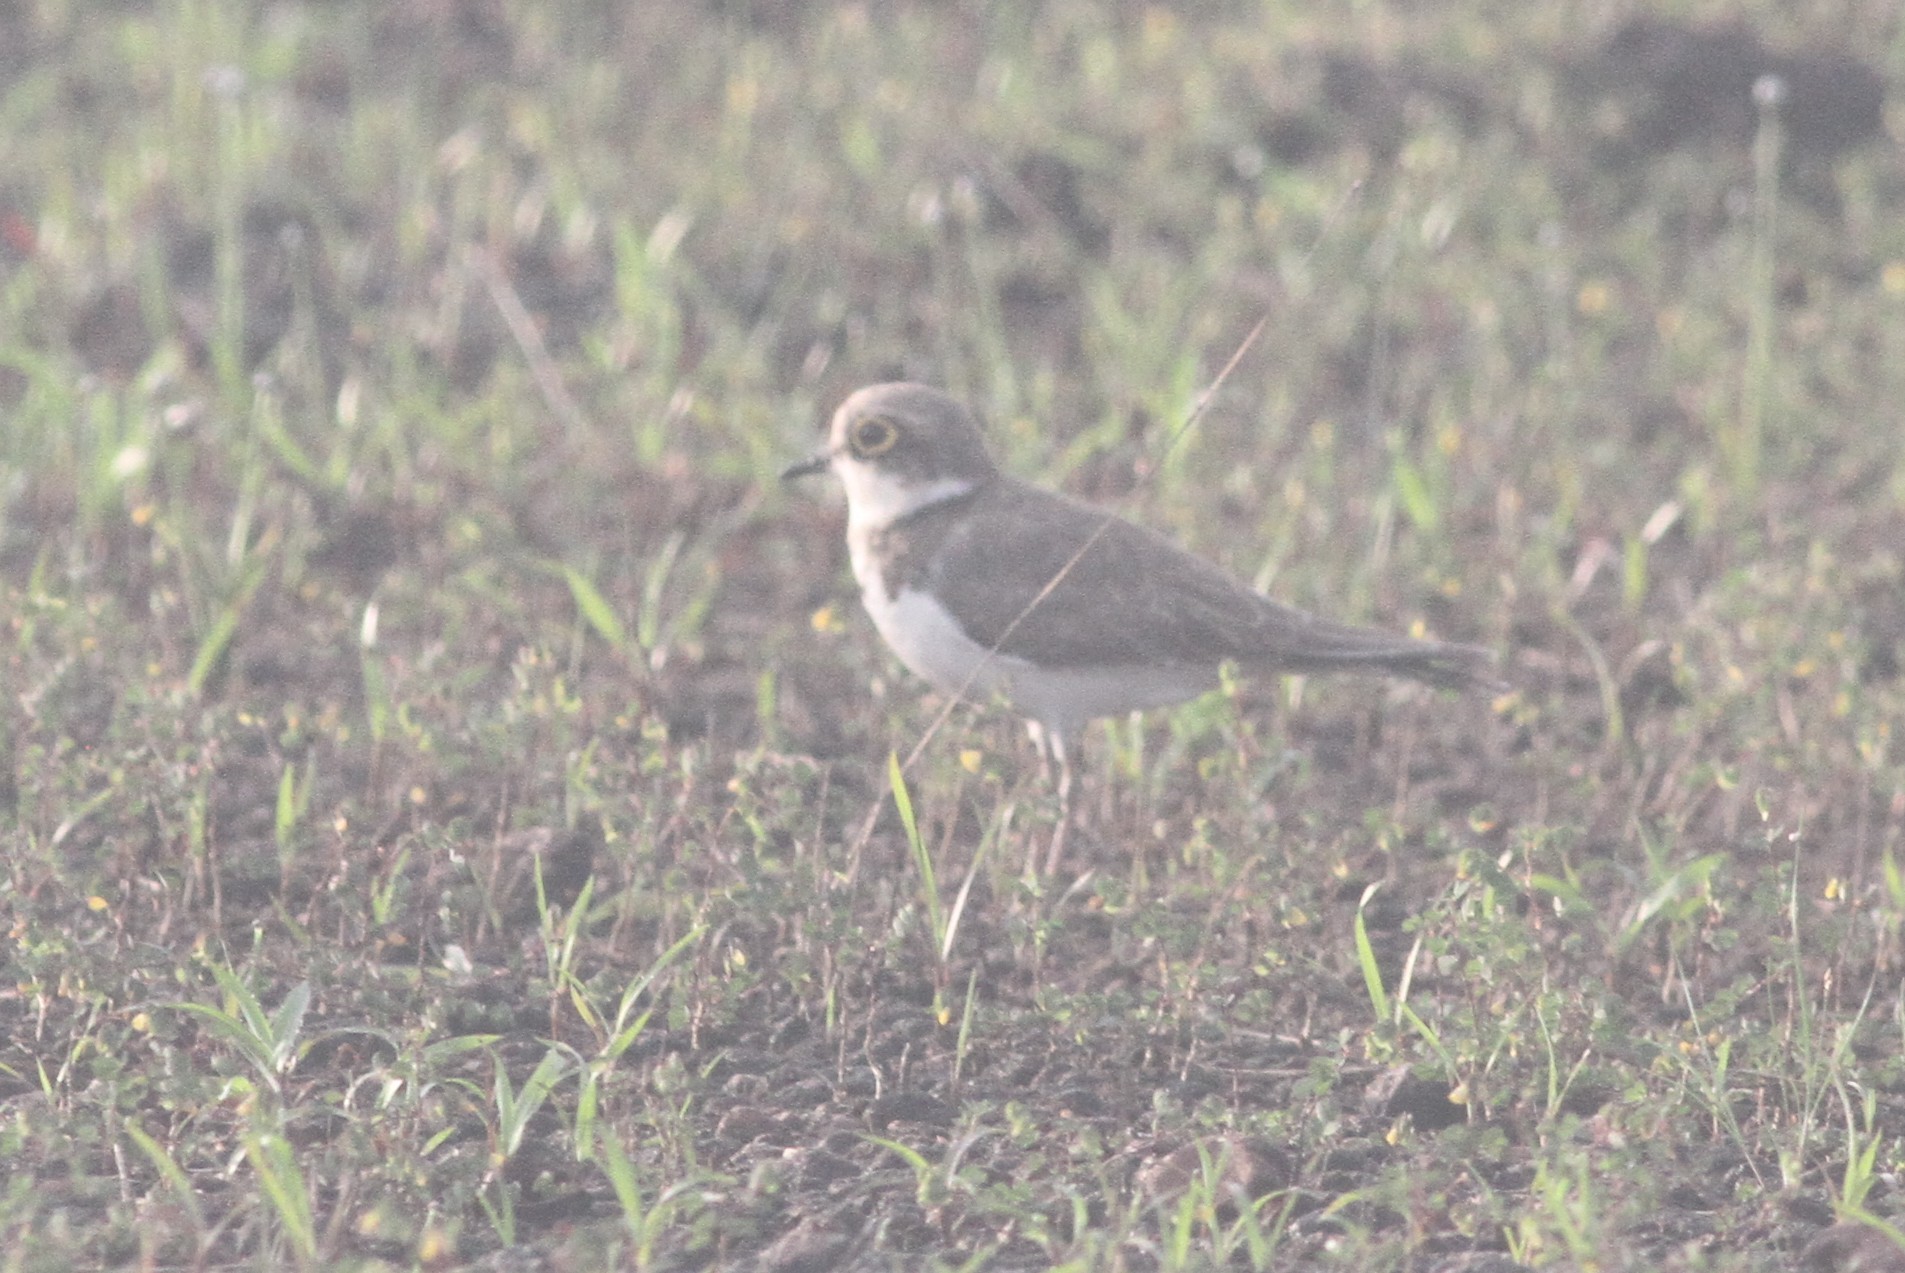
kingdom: Animalia
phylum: Chordata
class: Aves
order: Charadriiformes
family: Charadriidae
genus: Charadrius
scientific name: Charadrius dubius
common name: Little ringed plover
